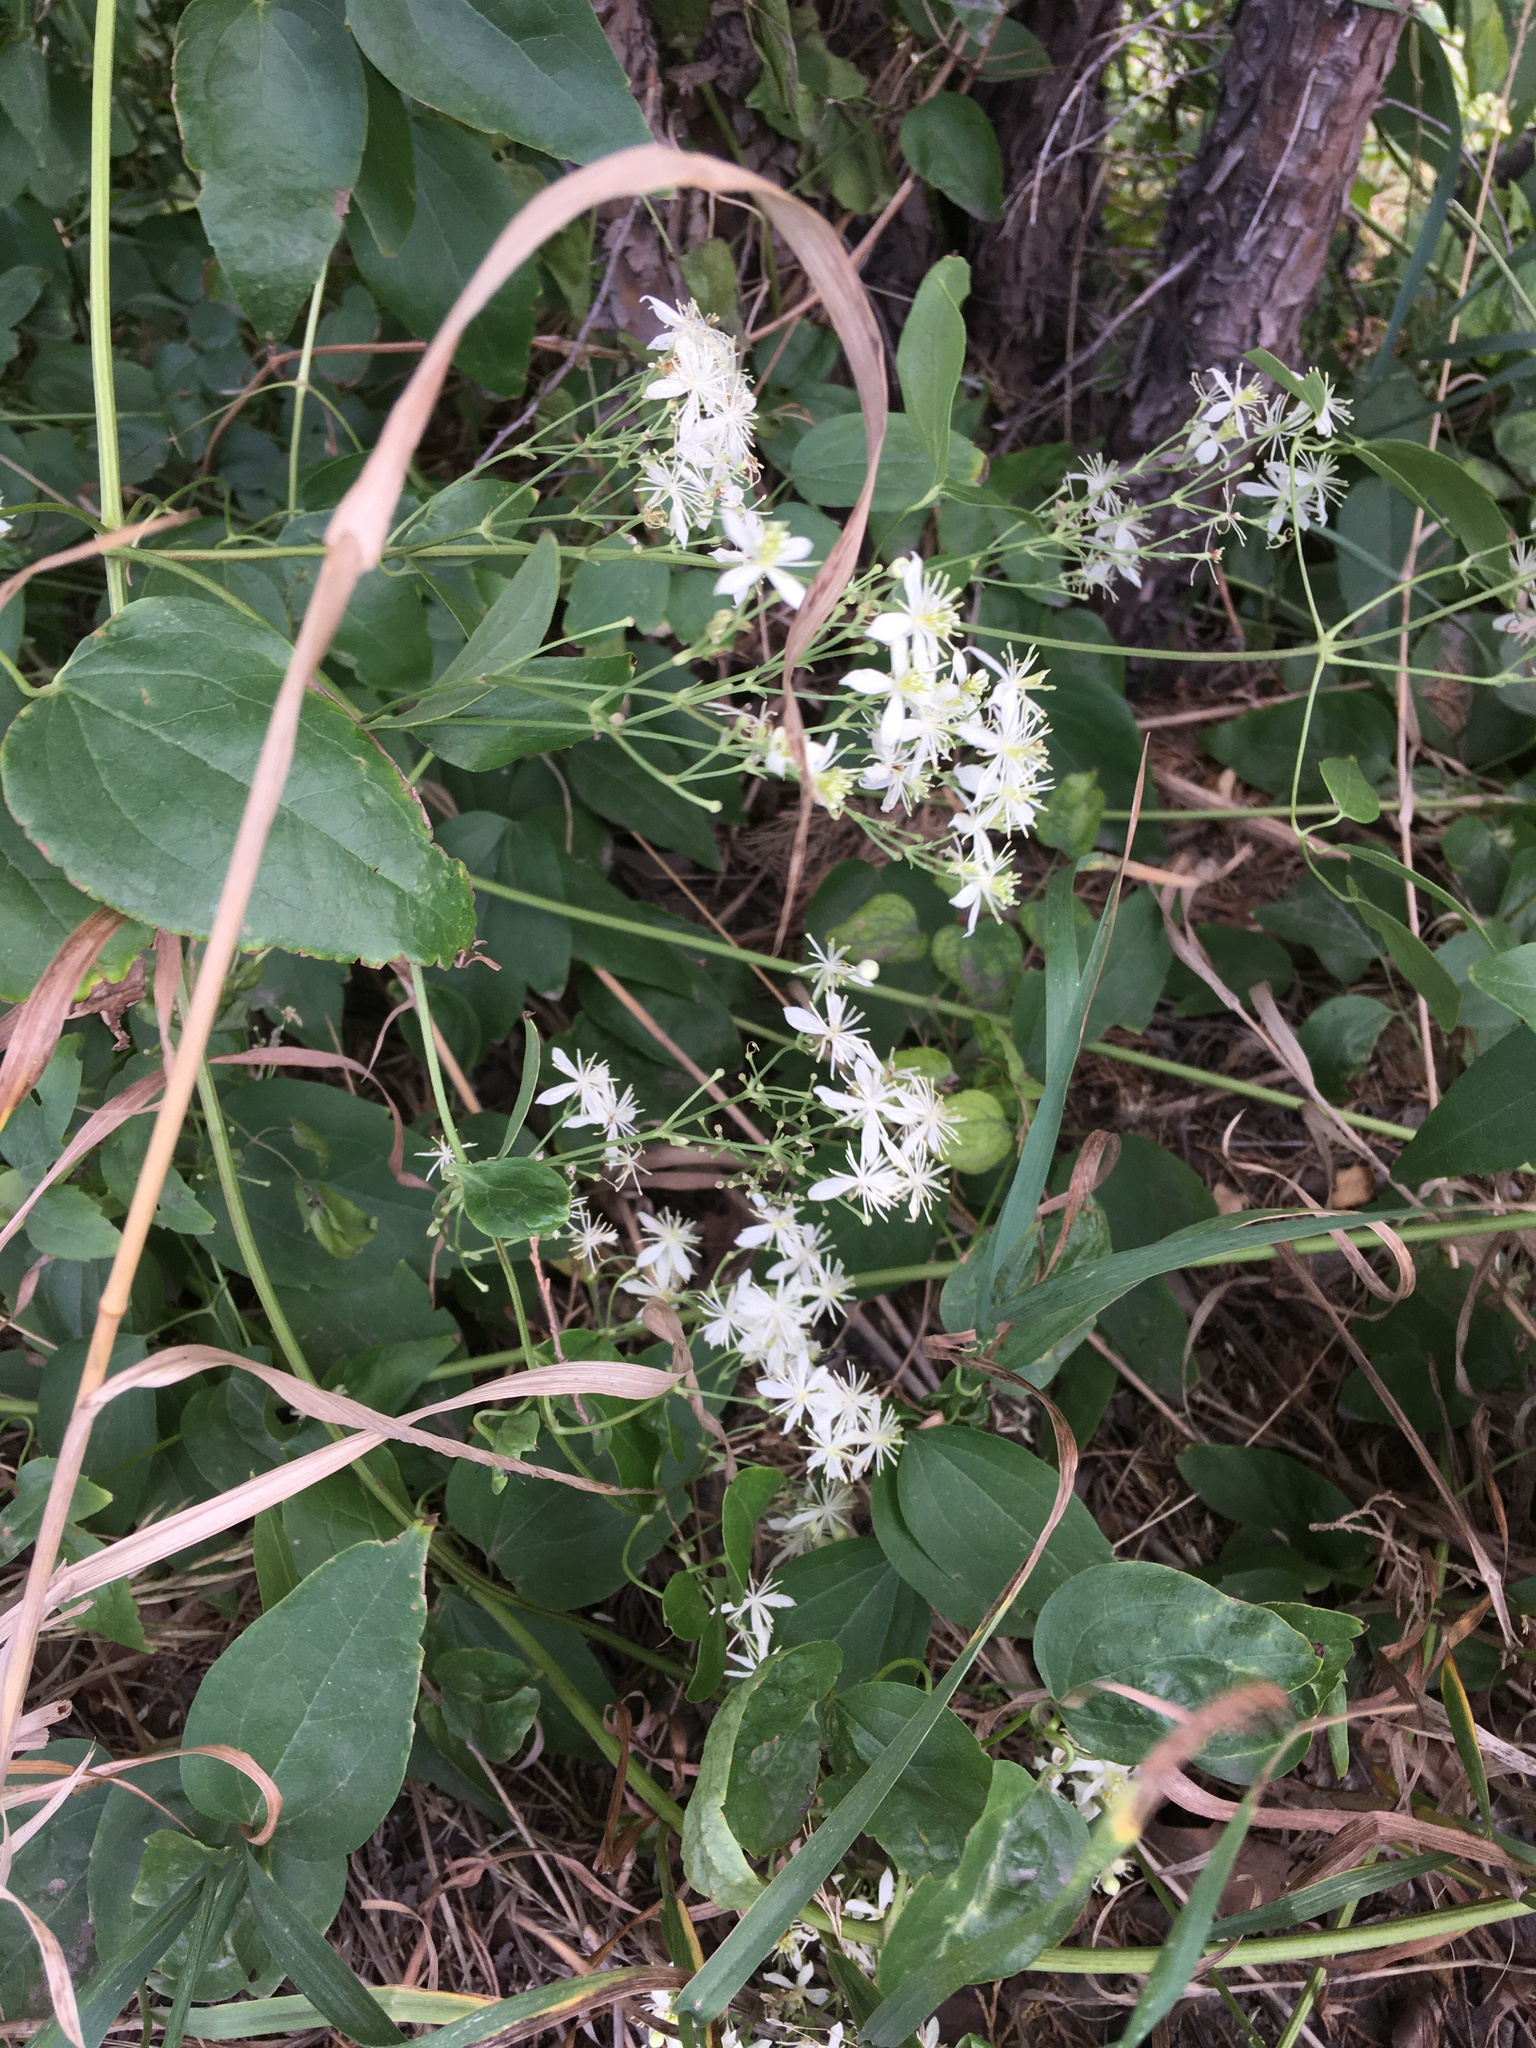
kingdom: Plantae
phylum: Tracheophyta
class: Magnoliopsida
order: Ranunculales
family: Ranunculaceae
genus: Clematis
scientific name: Clematis ligusticifolia
